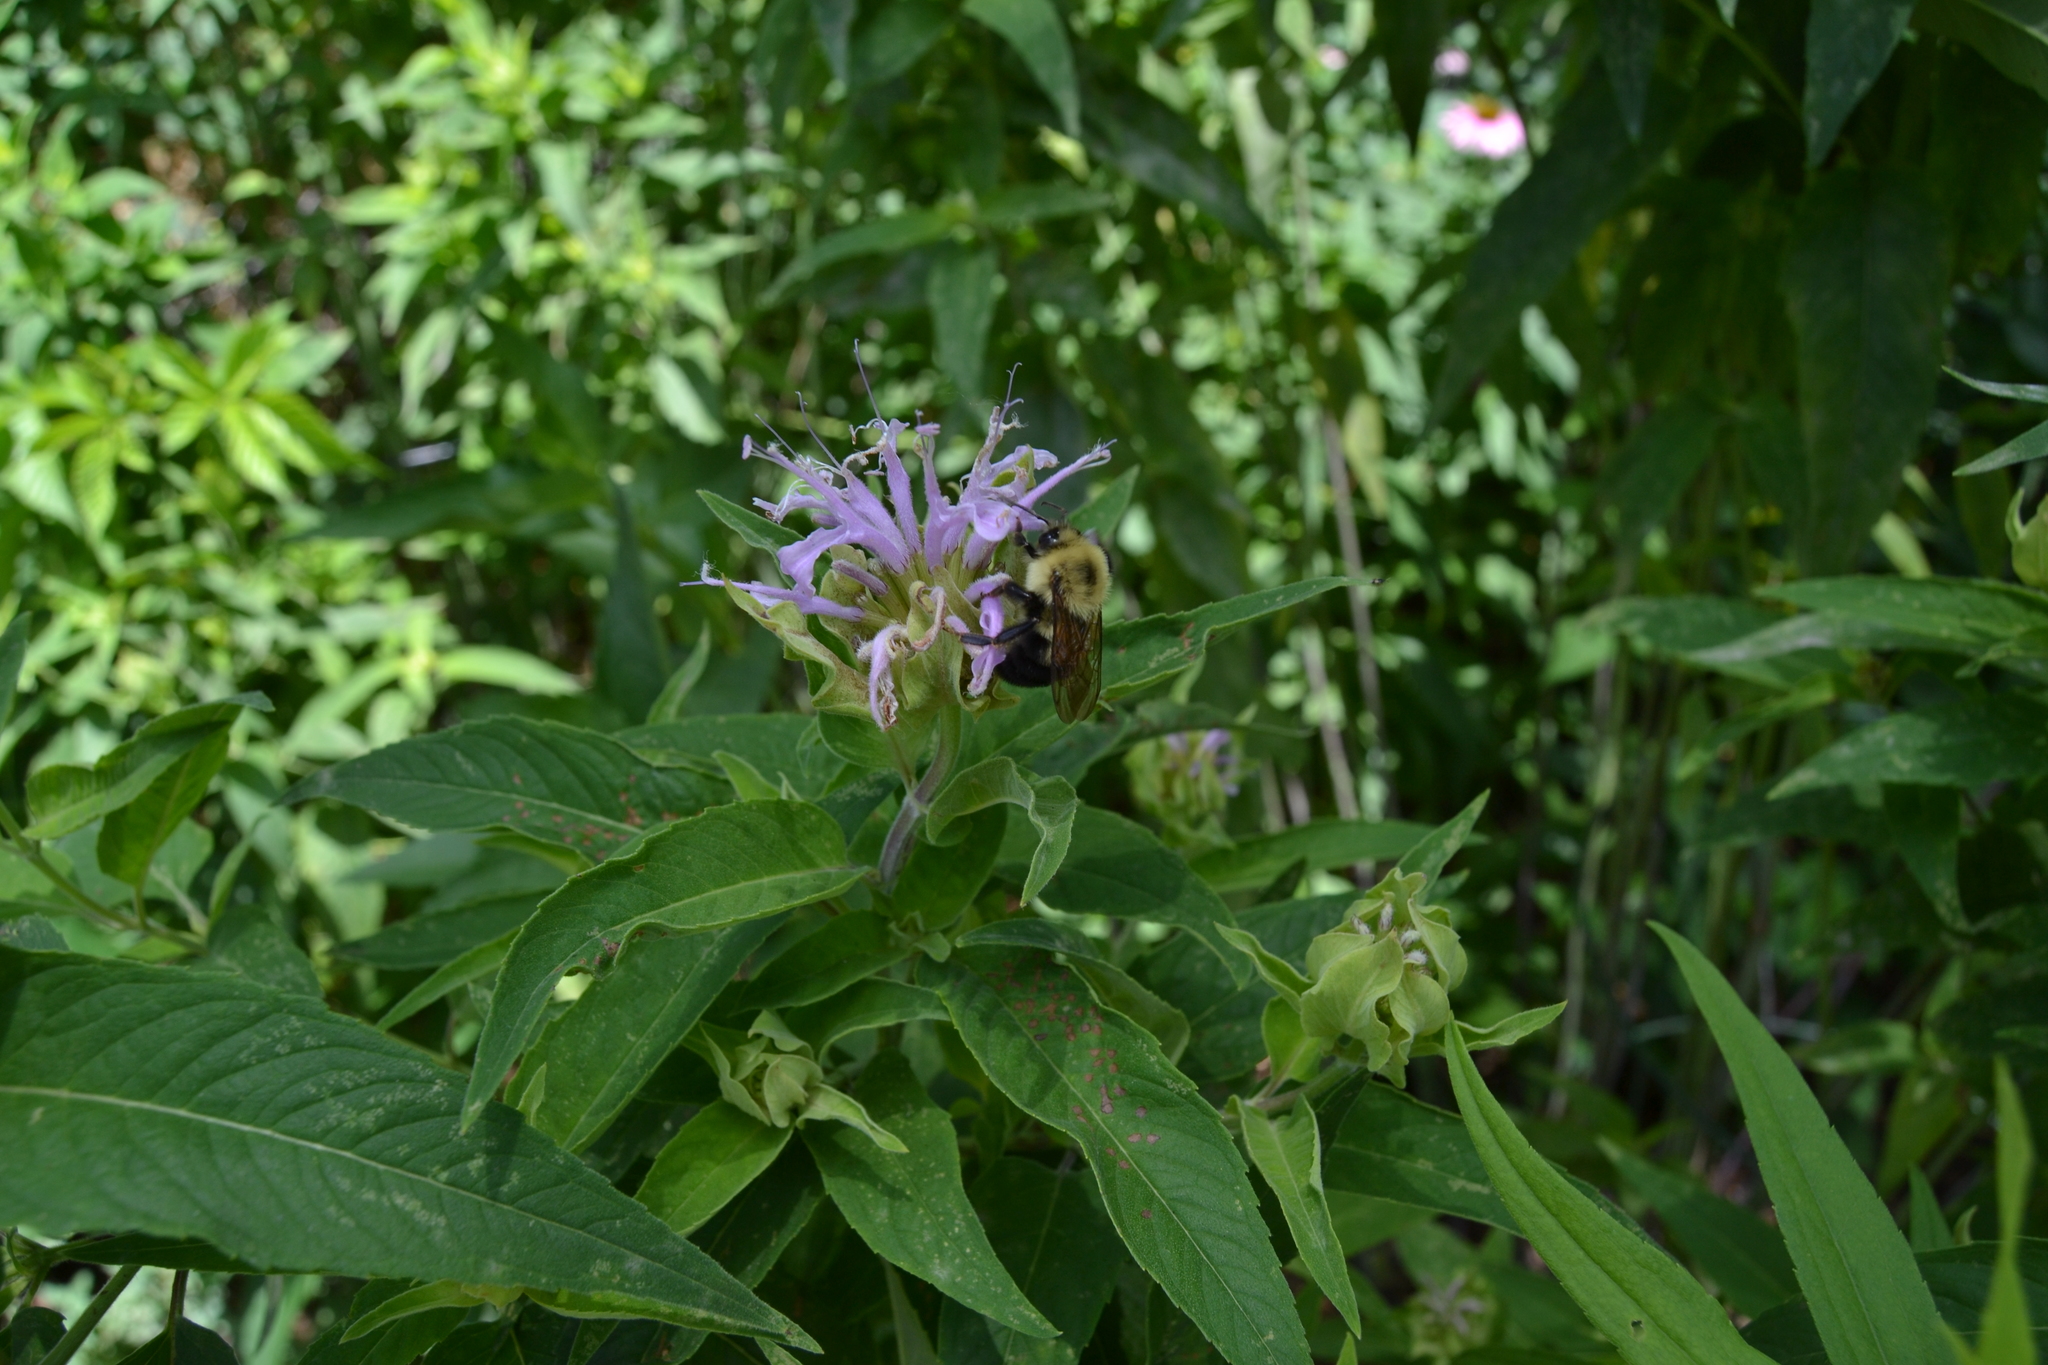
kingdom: Animalia
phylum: Arthropoda
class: Insecta
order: Hymenoptera
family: Apidae
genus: Bombus
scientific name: Bombus bimaculatus
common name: Two-spotted bumble bee
